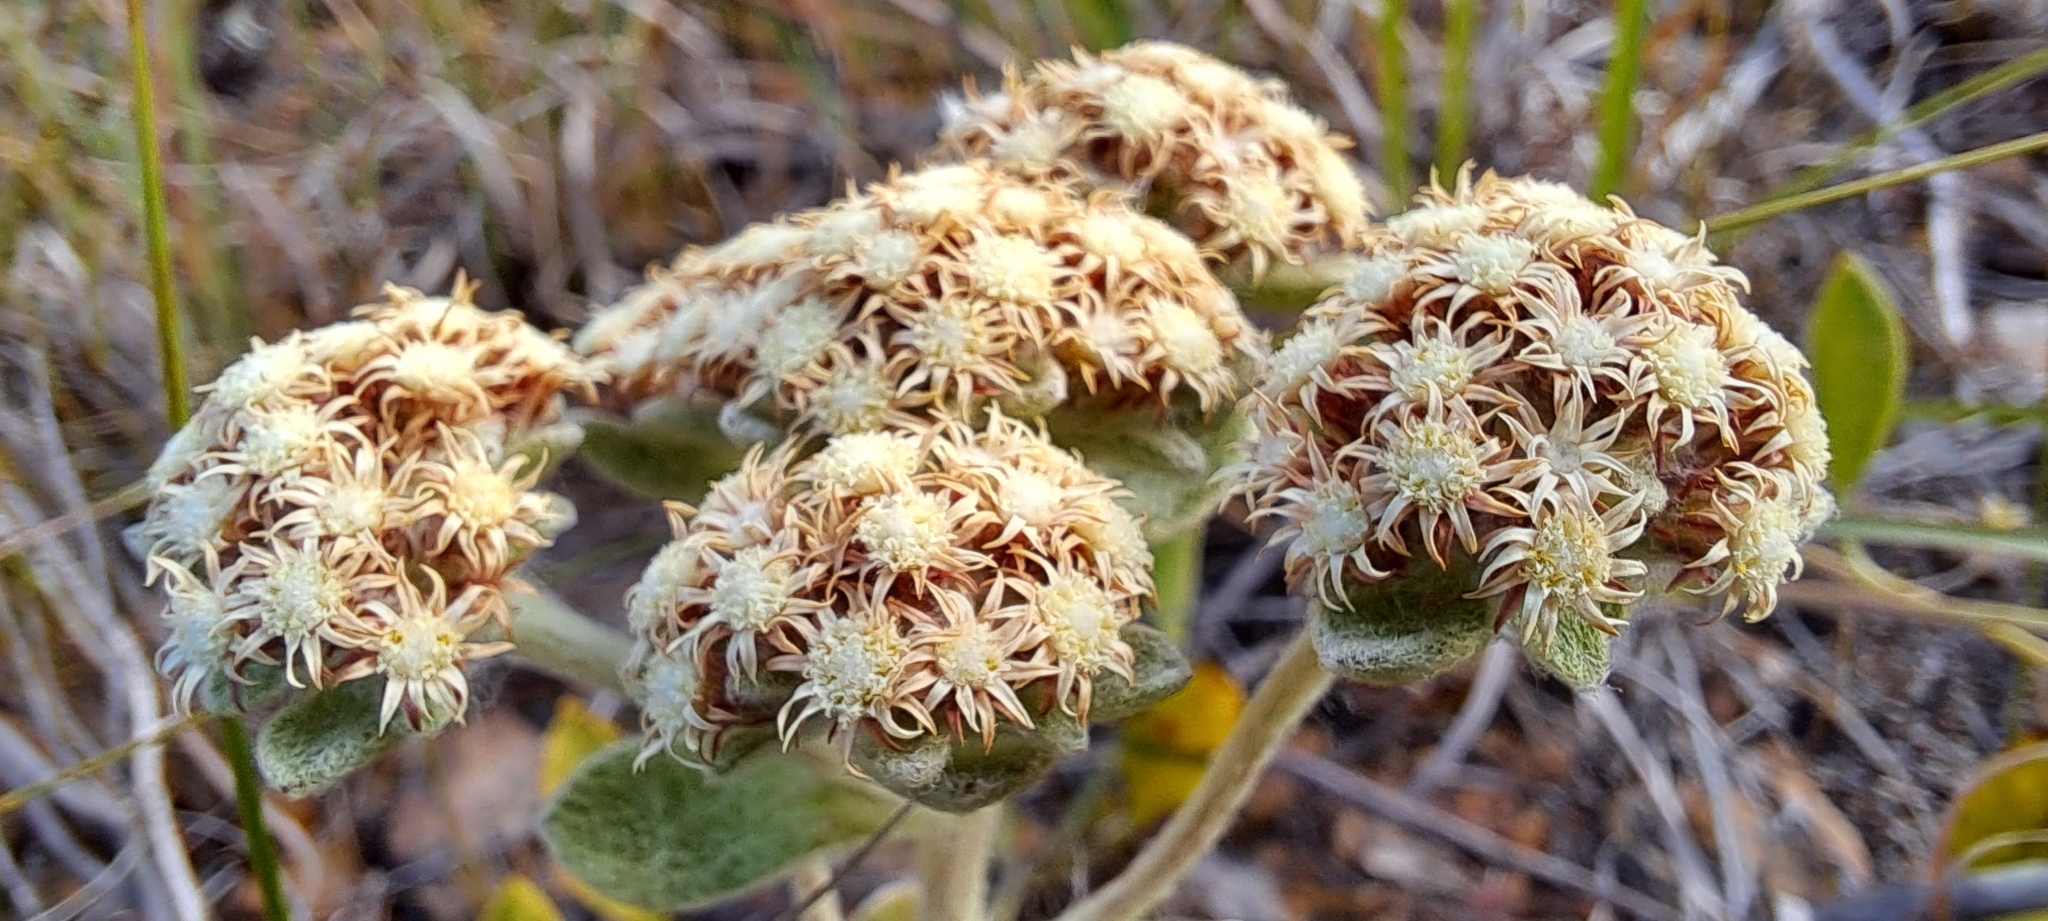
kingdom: Plantae
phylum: Tracheophyta
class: Magnoliopsida
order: Asterales
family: Asteraceae
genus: Helichrysum
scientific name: Helichrysum spiralepis
